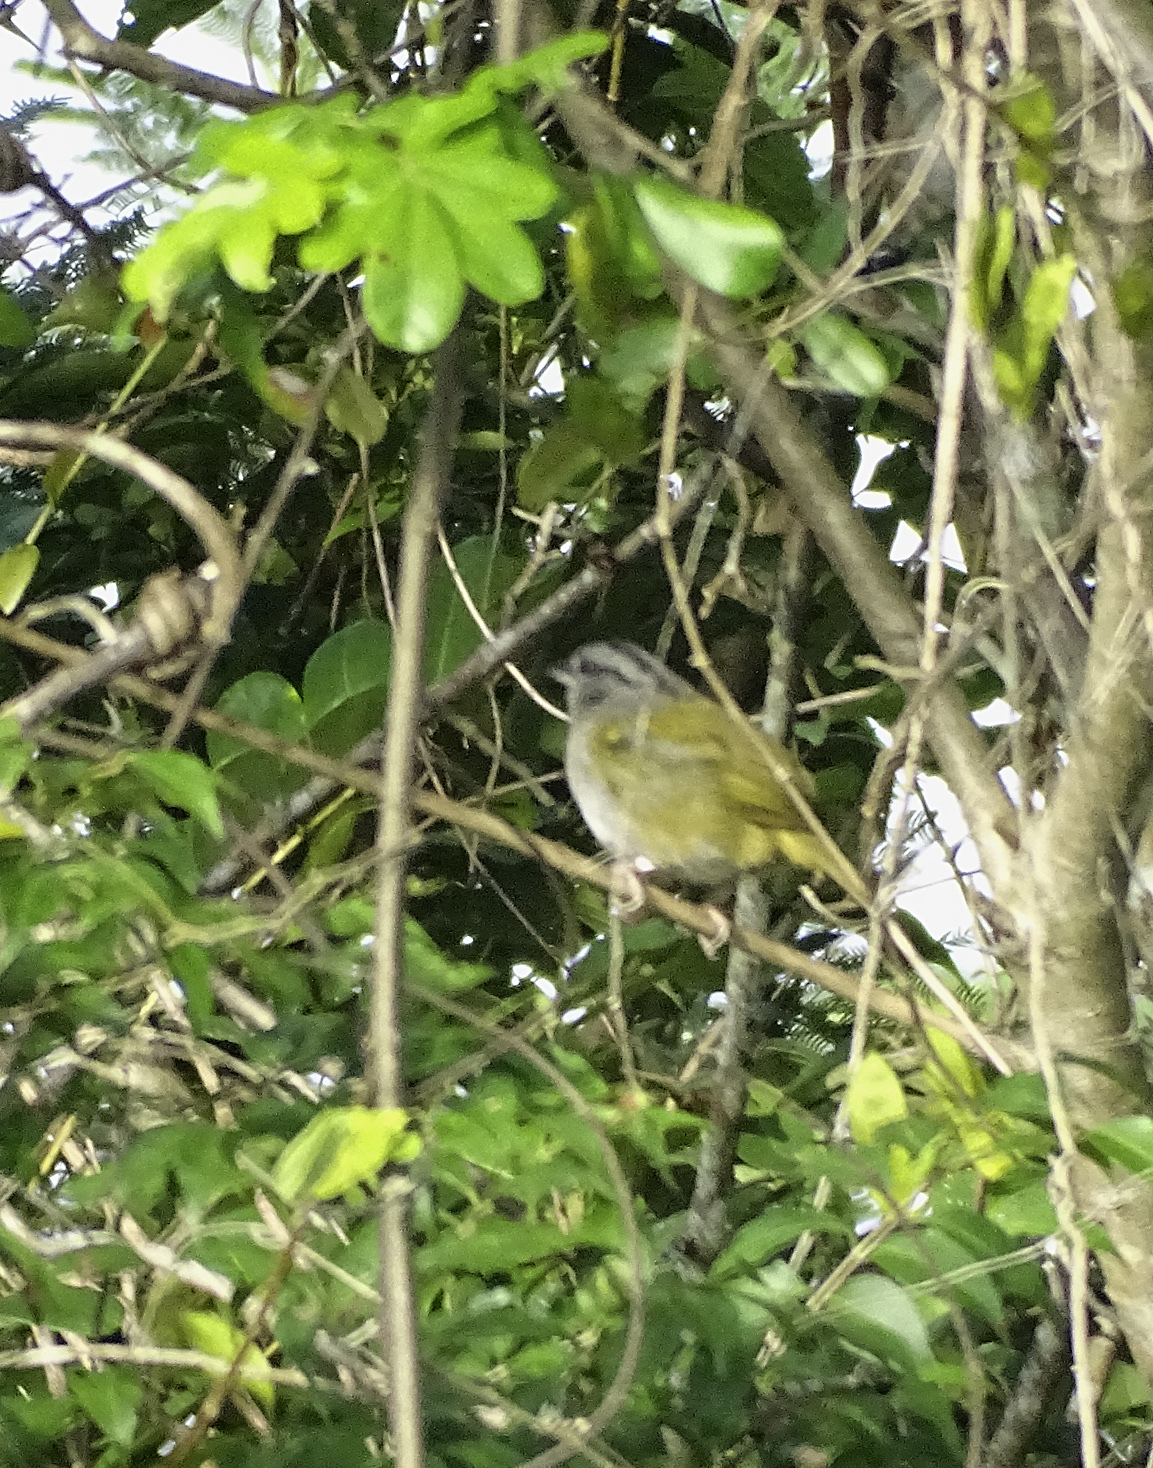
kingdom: Animalia
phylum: Chordata
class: Aves
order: Passeriformes
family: Passerellidae
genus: Arremonops
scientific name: Arremonops rufivirgatus
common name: Olive sparrow
